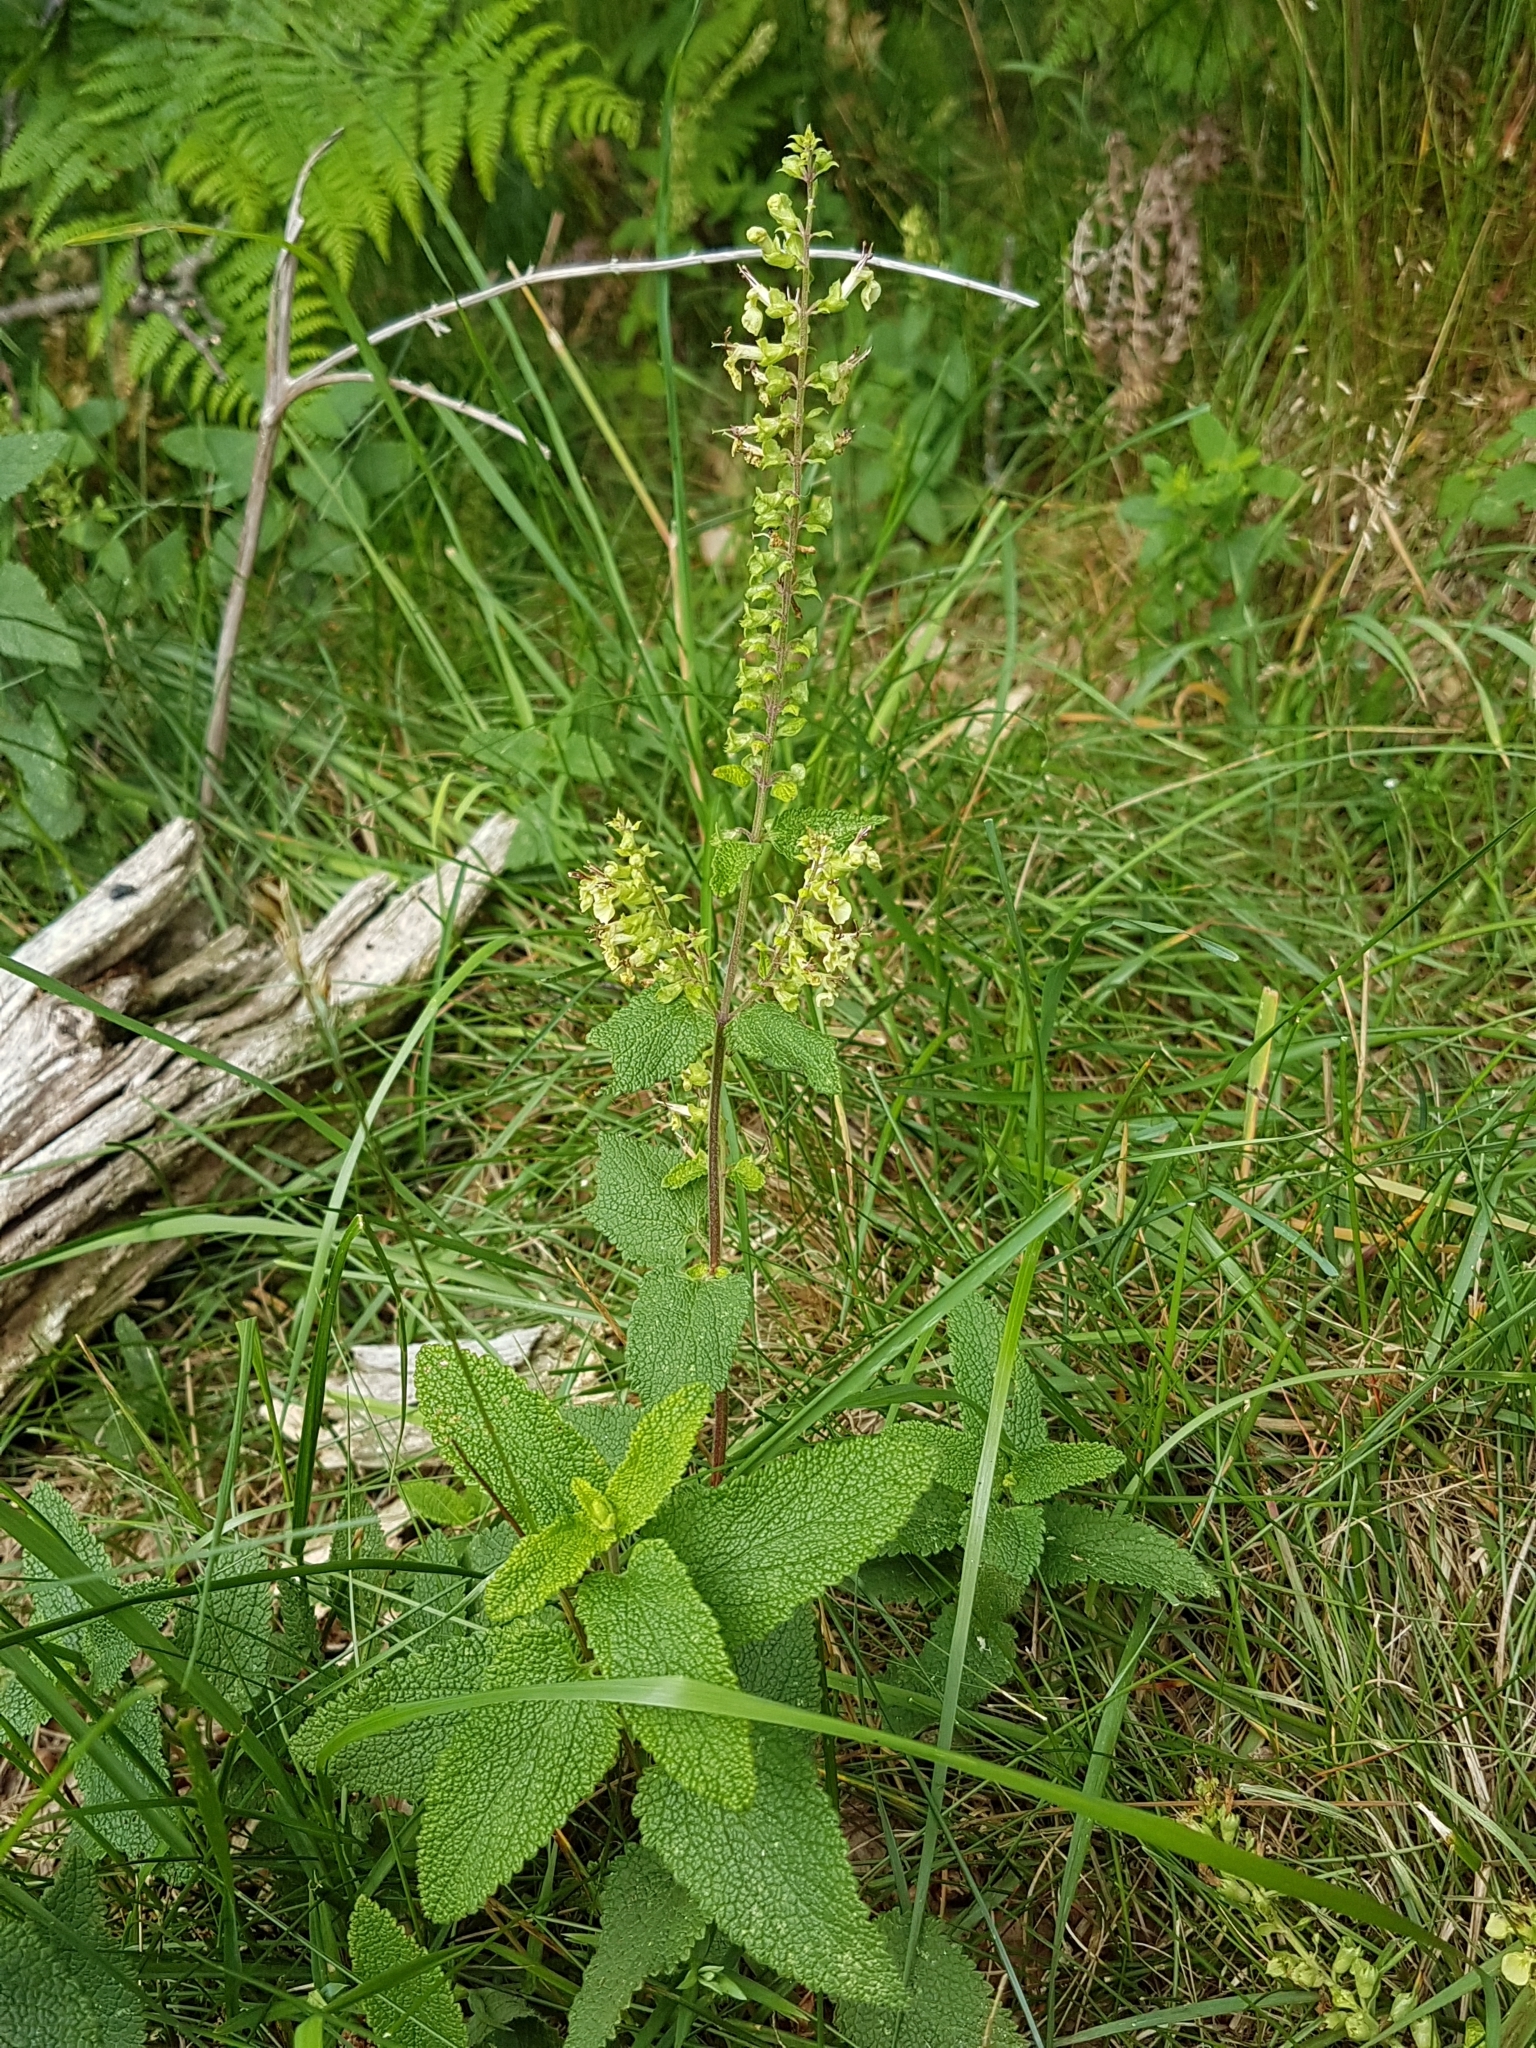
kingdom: Plantae
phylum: Tracheophyta
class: Magnoliopsida
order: Lamiales
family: Lamiaceae
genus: Teucrium
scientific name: Teucrium scorodonia
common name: Woodland germander
